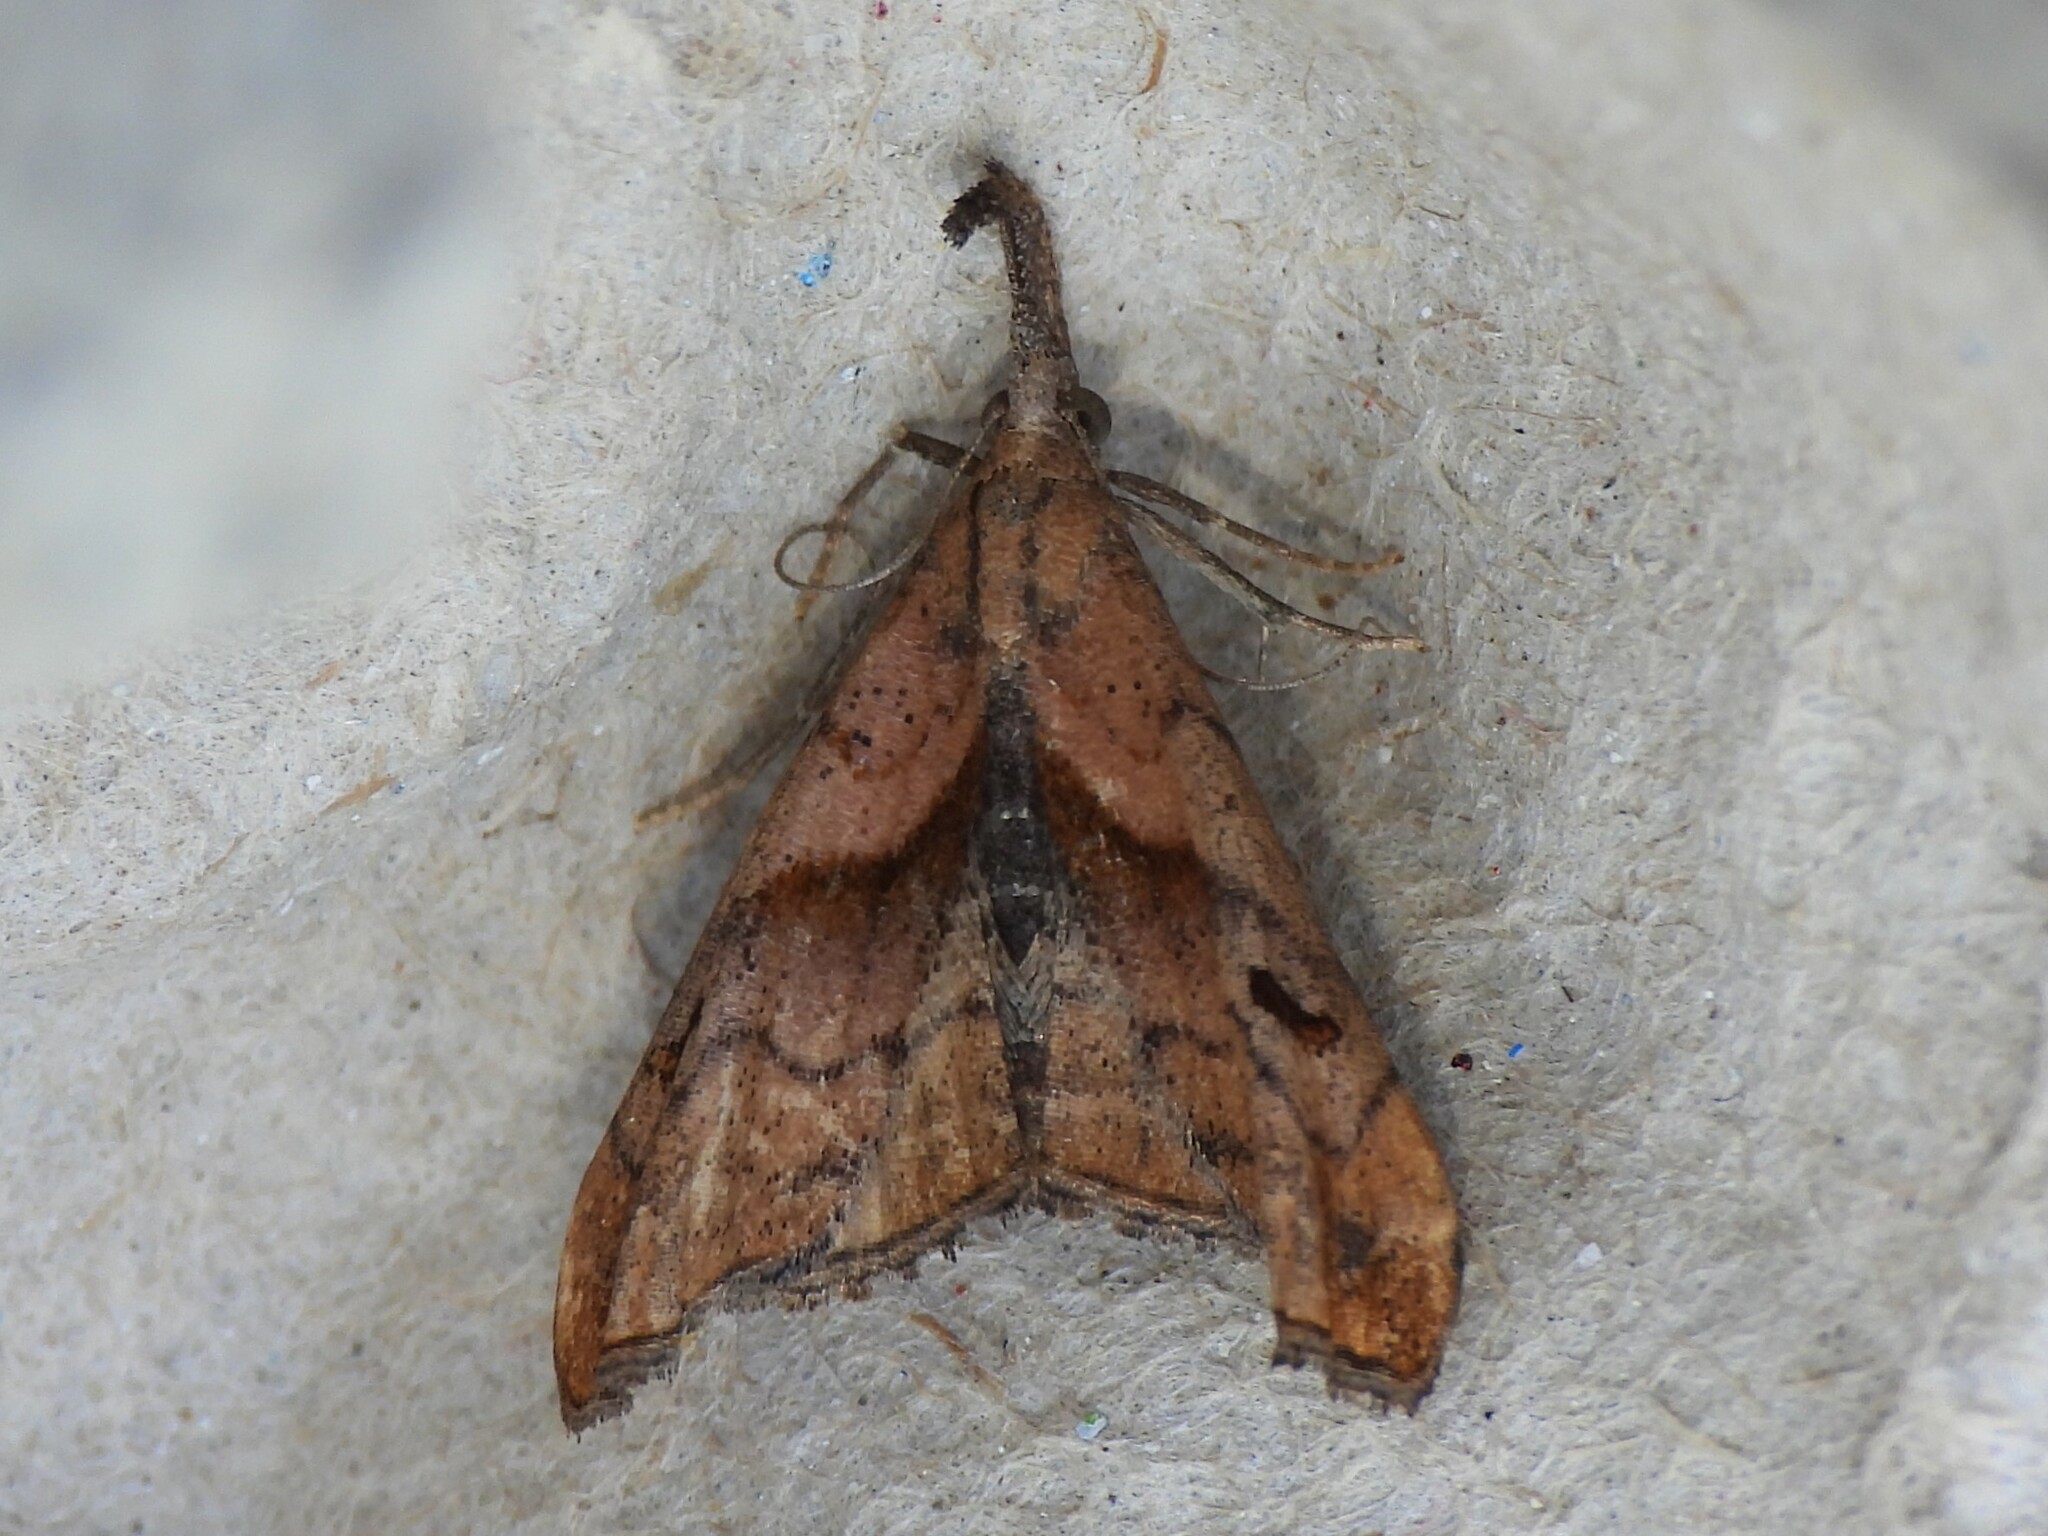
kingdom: Animalia
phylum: Arthropoda
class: Insecta
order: Lepidoptera
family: Erebidae
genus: Palthis
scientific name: Palthis angulalis
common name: Dark-spotted palthis moth
